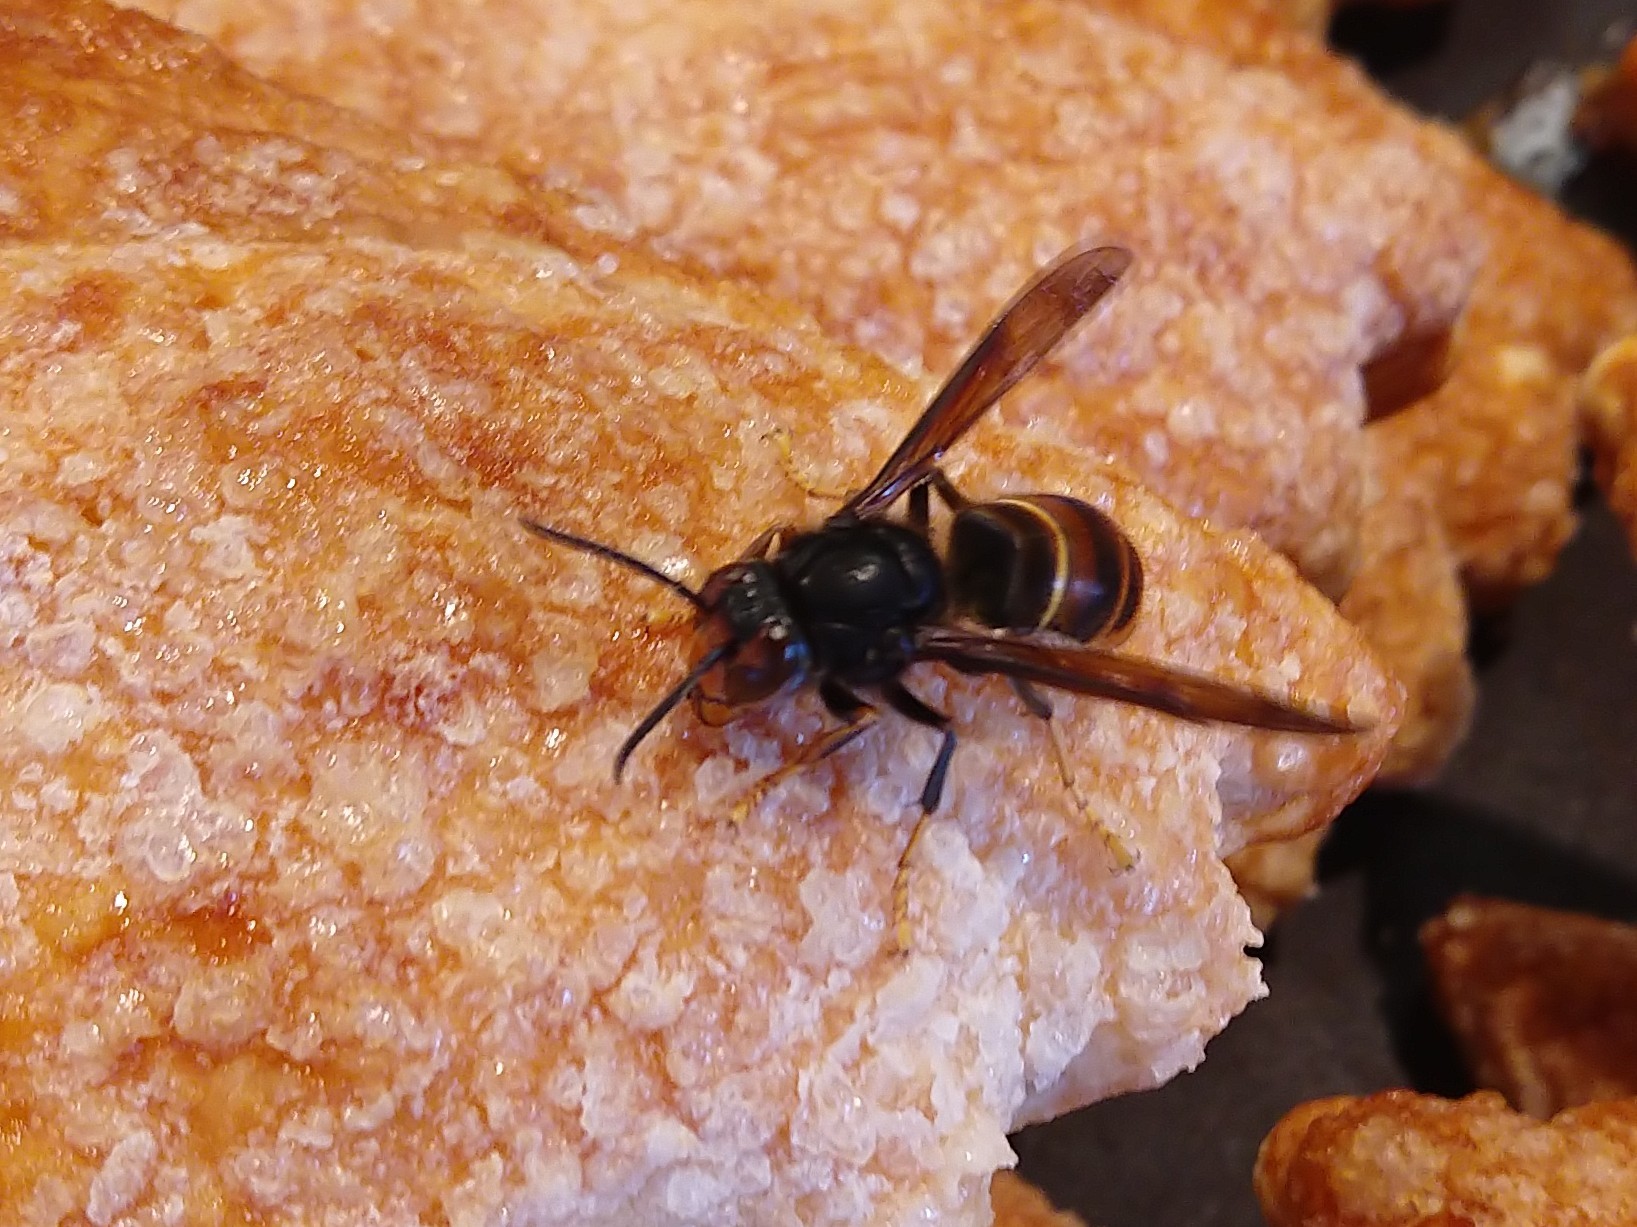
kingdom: Animalia
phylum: Arthropoda
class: Insecta
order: Hymenoptera
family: Vespidae
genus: Vespa
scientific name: Vespa velutina
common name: Asian hornet
